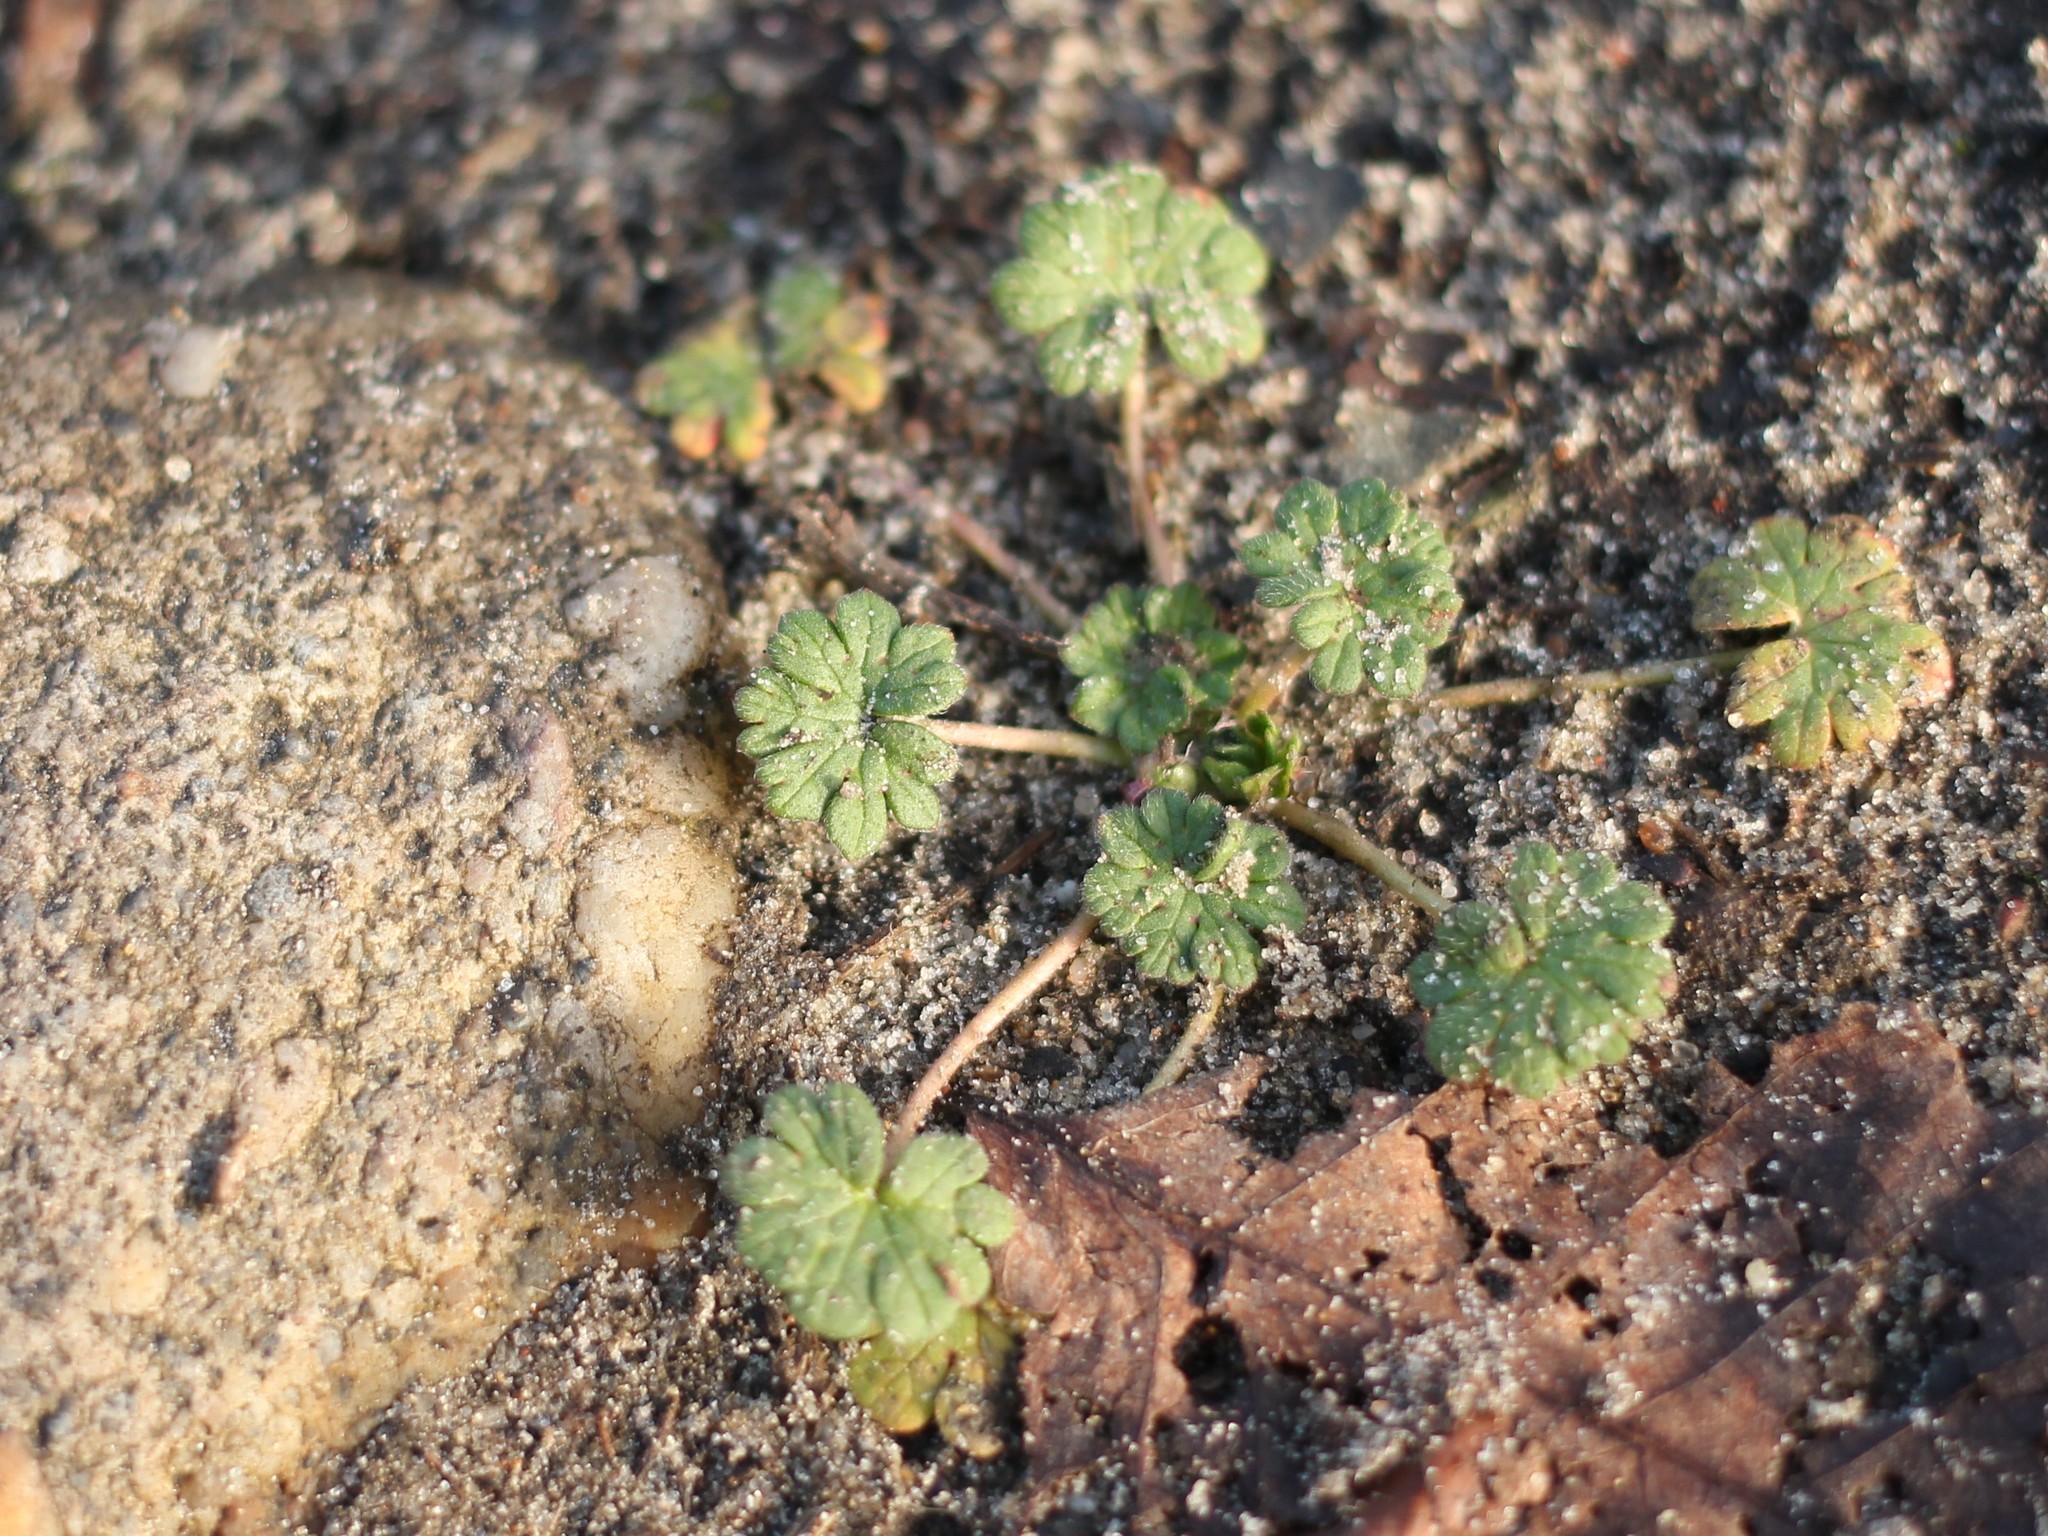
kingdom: Plantae
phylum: Tracheophyta
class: Magnoliopsida
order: Geraniales
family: Geraniaceae
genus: Geranium
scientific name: Geranium molle
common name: Dove's-foot crane's-bill
